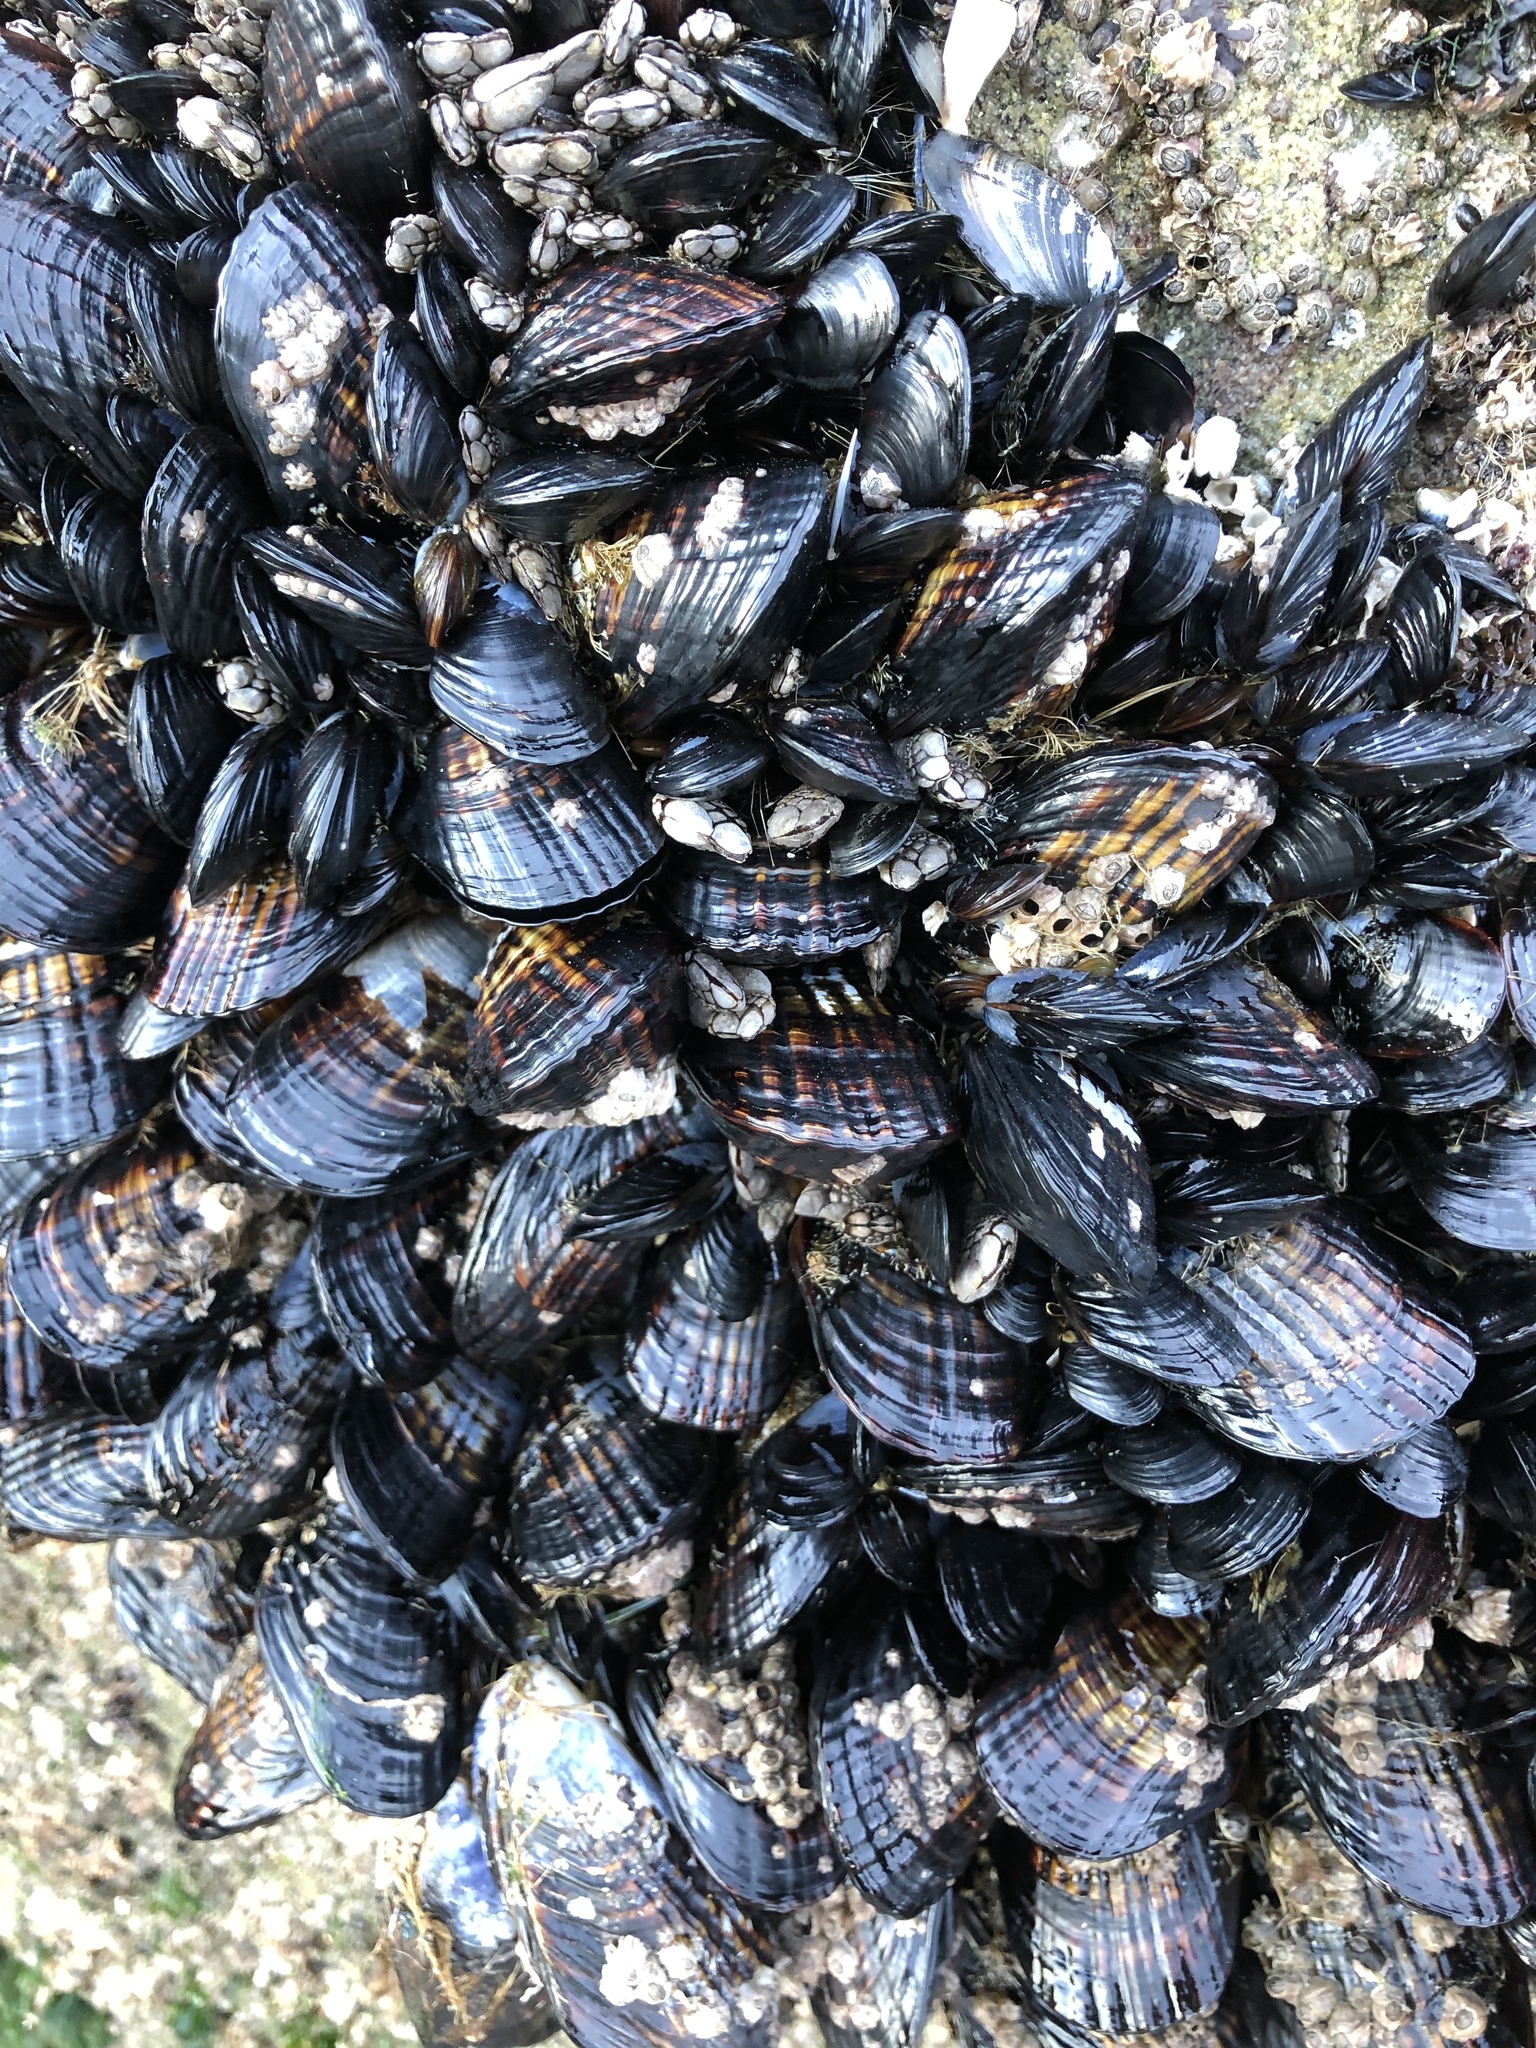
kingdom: Animalia
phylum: Mollusca
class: Bivalvia
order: Mytilida
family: Mytilidae
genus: Mytilus
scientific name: Mytilus californianus
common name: California mussel
